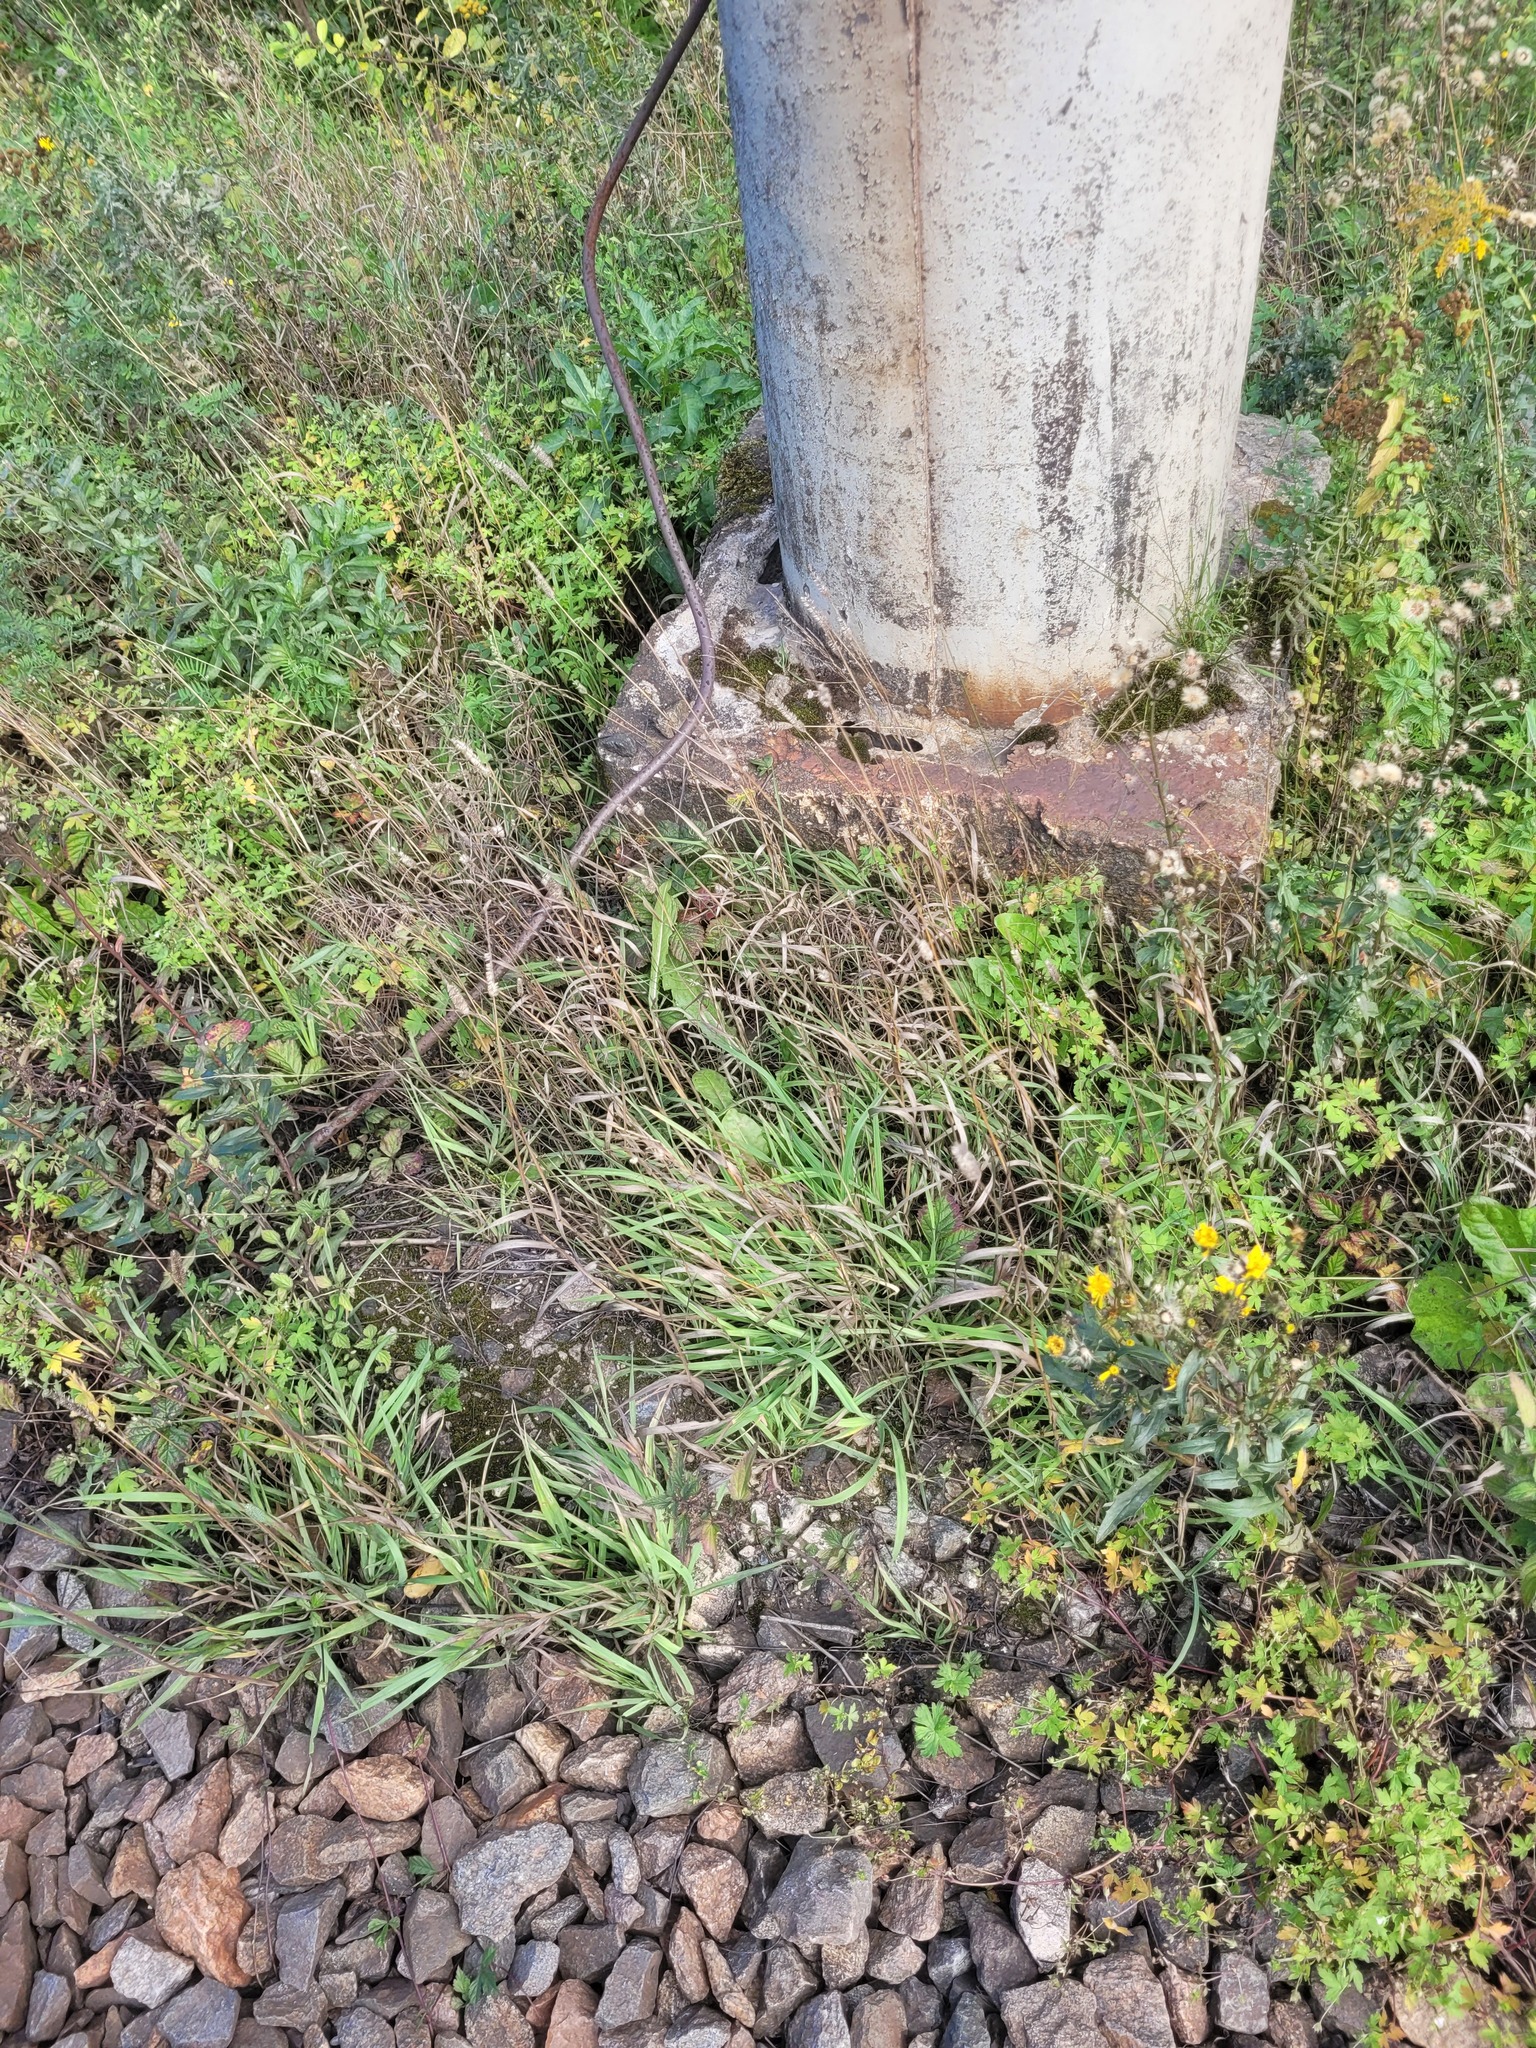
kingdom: Plantae
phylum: Tracheophyta
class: Liliopsida
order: Poales
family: Poaceae
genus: Phleum
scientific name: Phleum pratense
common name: Timothy grass
